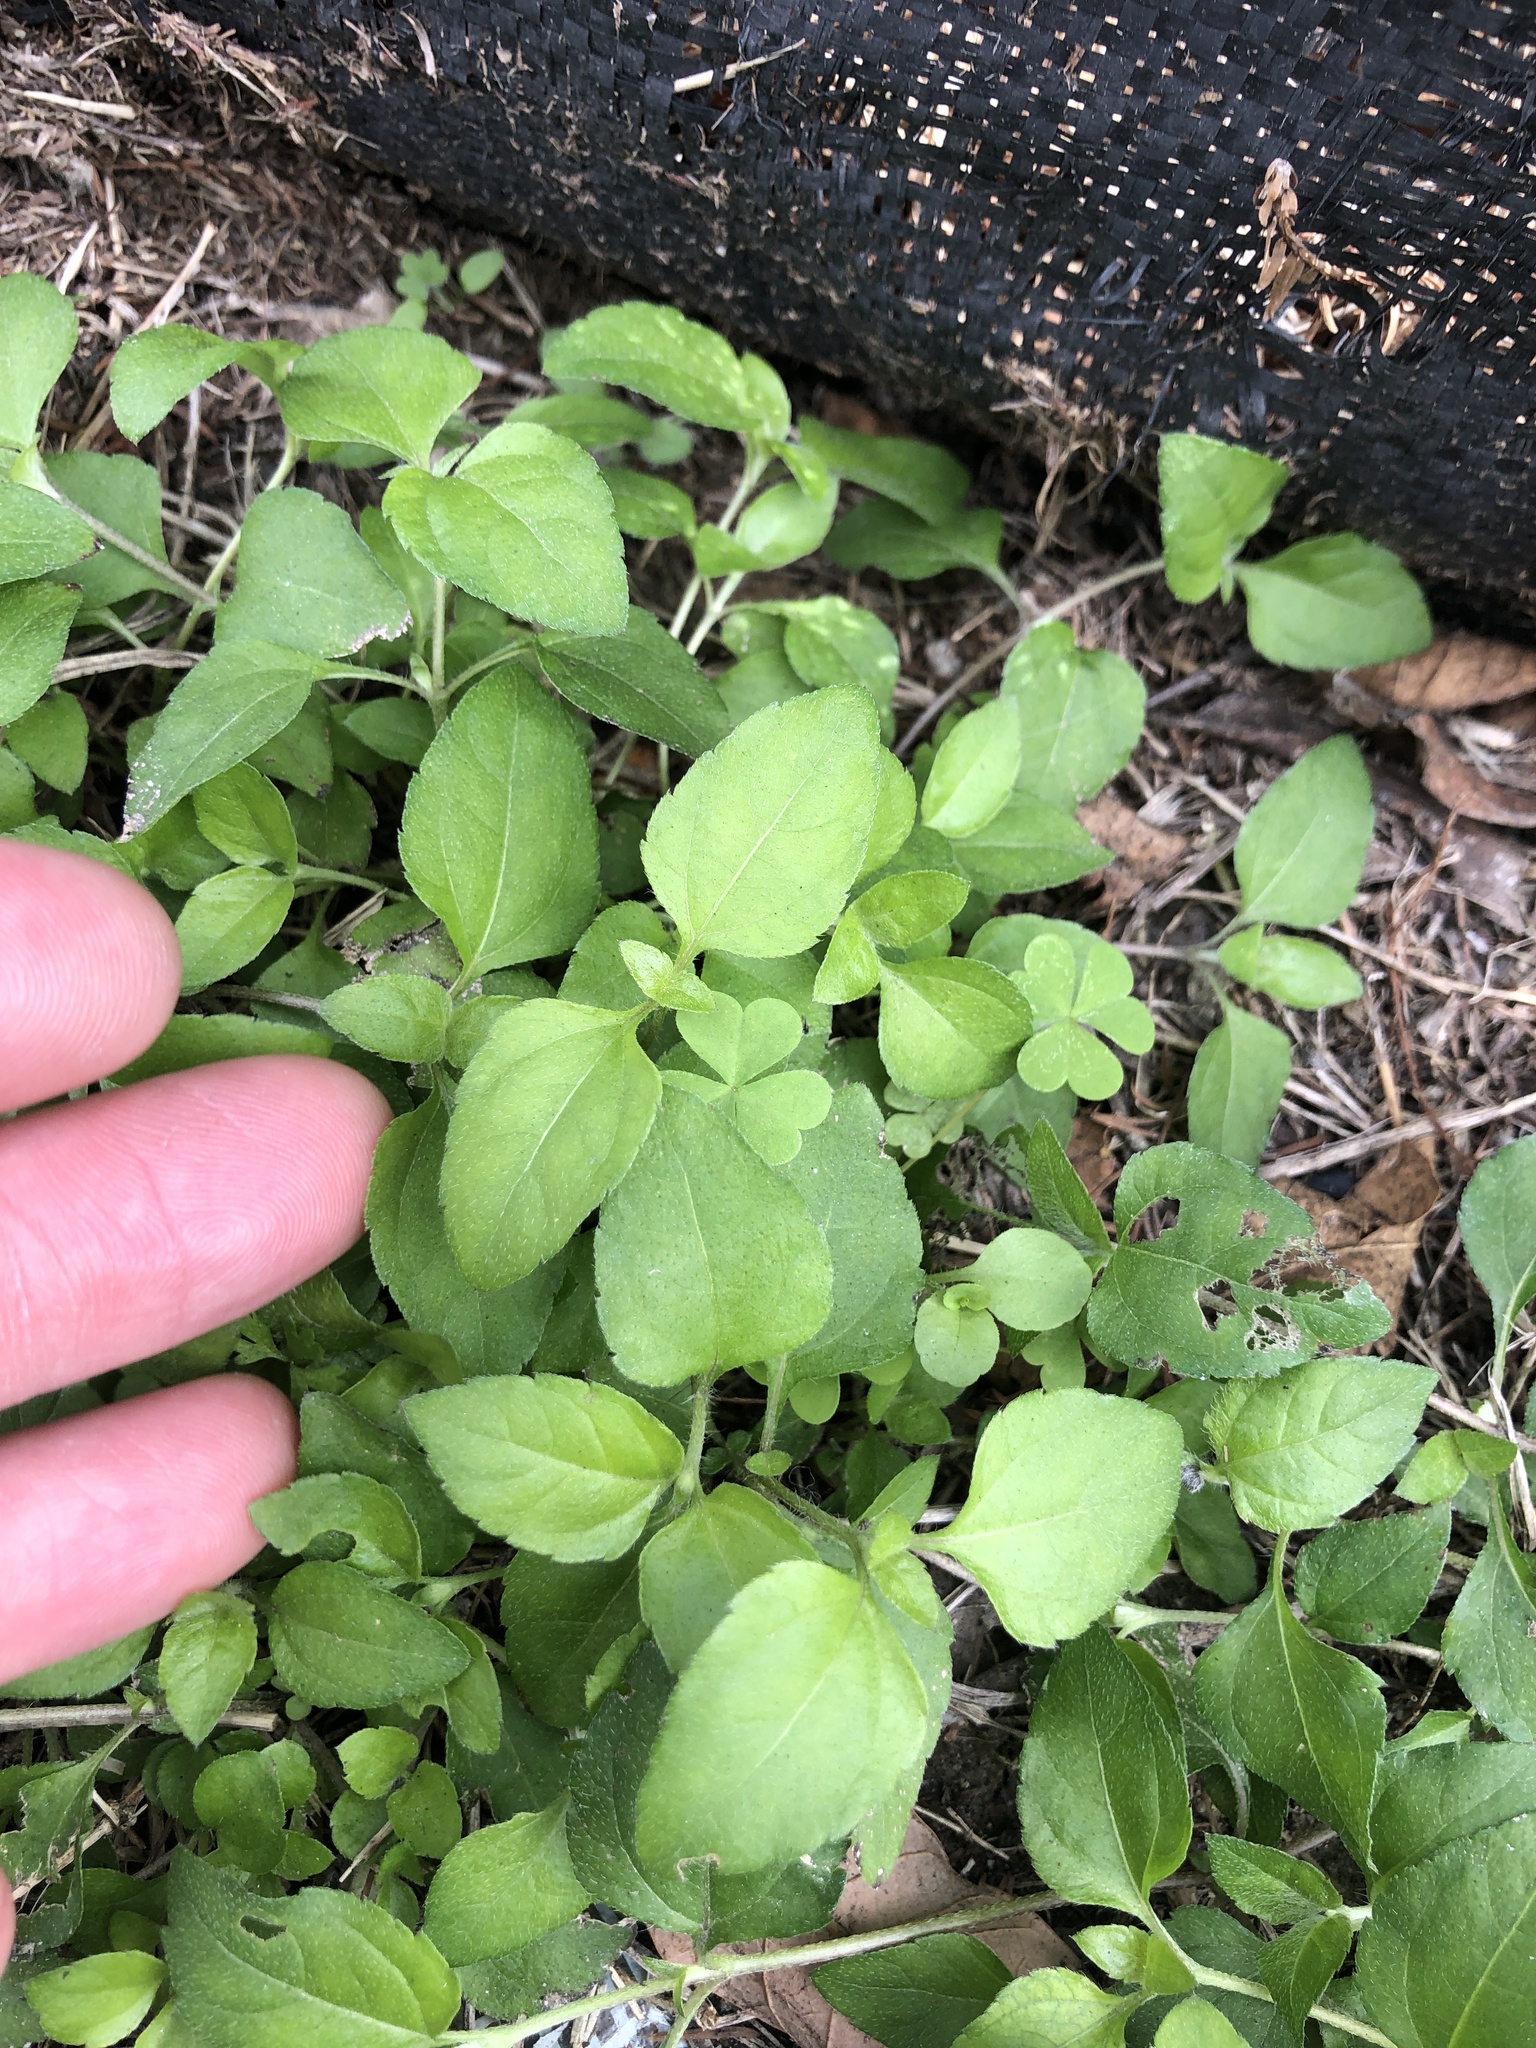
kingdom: Plantae
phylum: Tracheophyta
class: Magnoliopsida
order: Asterales
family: Asteraceae
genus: Calyptocarpus
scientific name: Calyptocarpus vialis
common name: Straggler daisy
